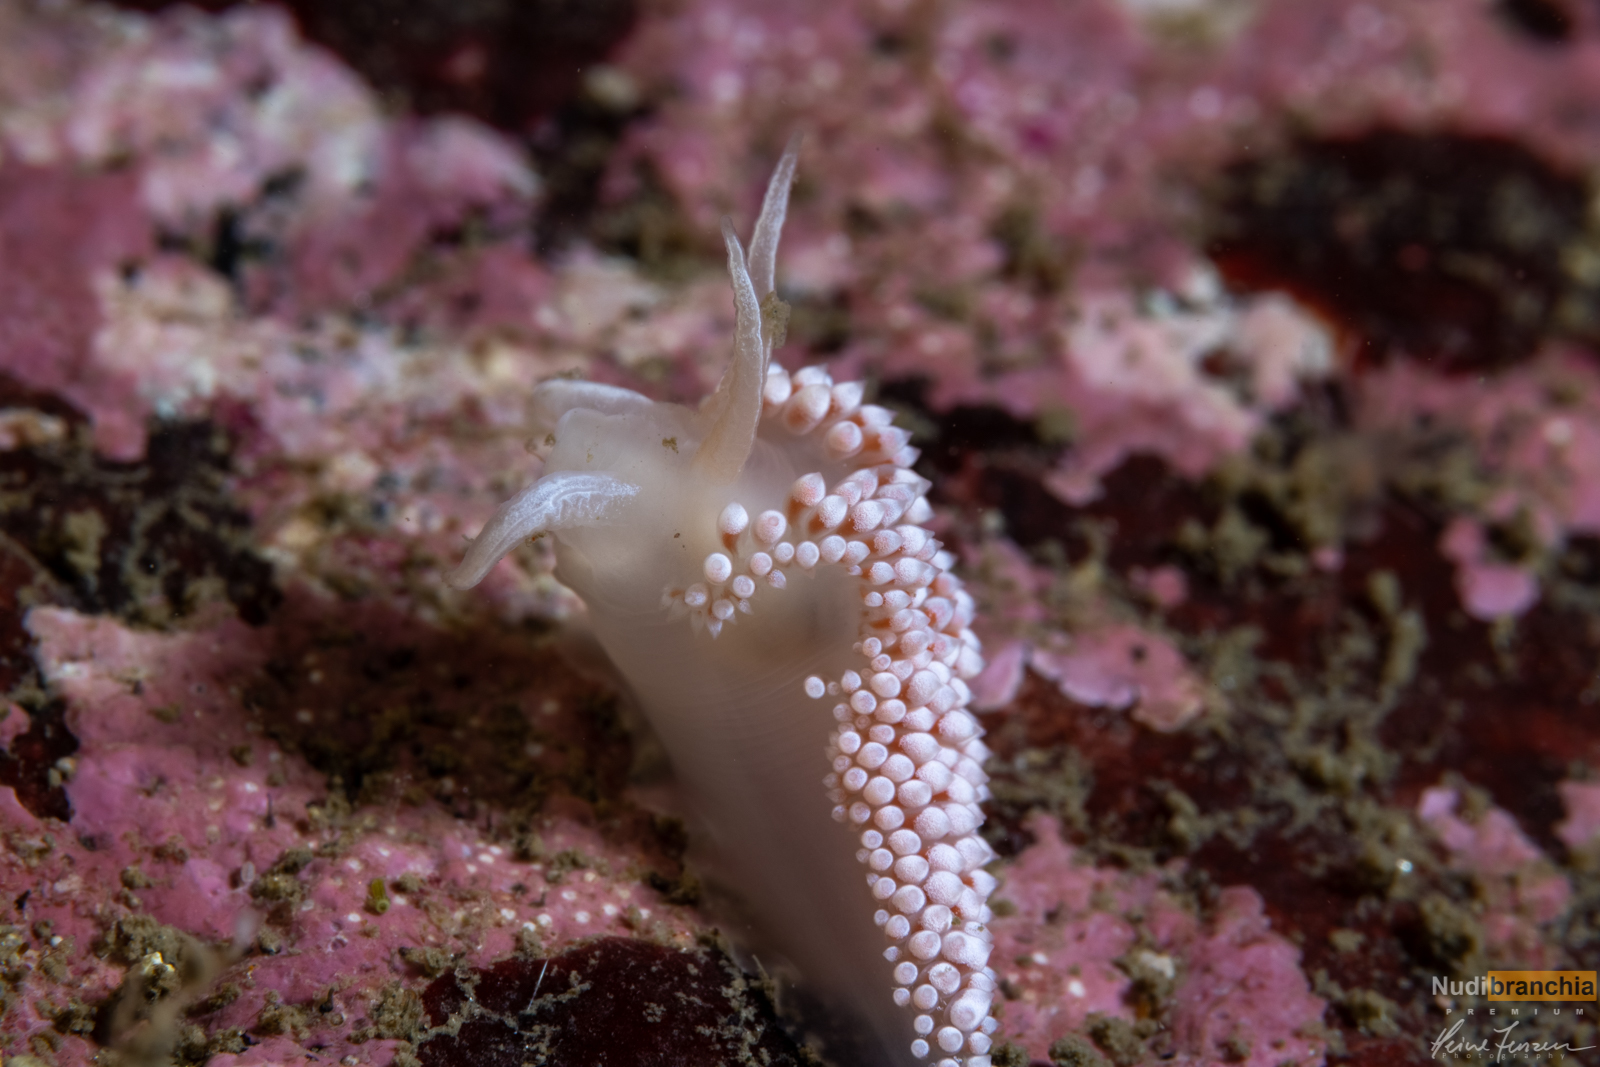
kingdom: Animalia
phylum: Mollusca
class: Gastropoda
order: Nudibranchia
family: Coryphellidae
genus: Coryphella
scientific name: Coryphella verrucosa
